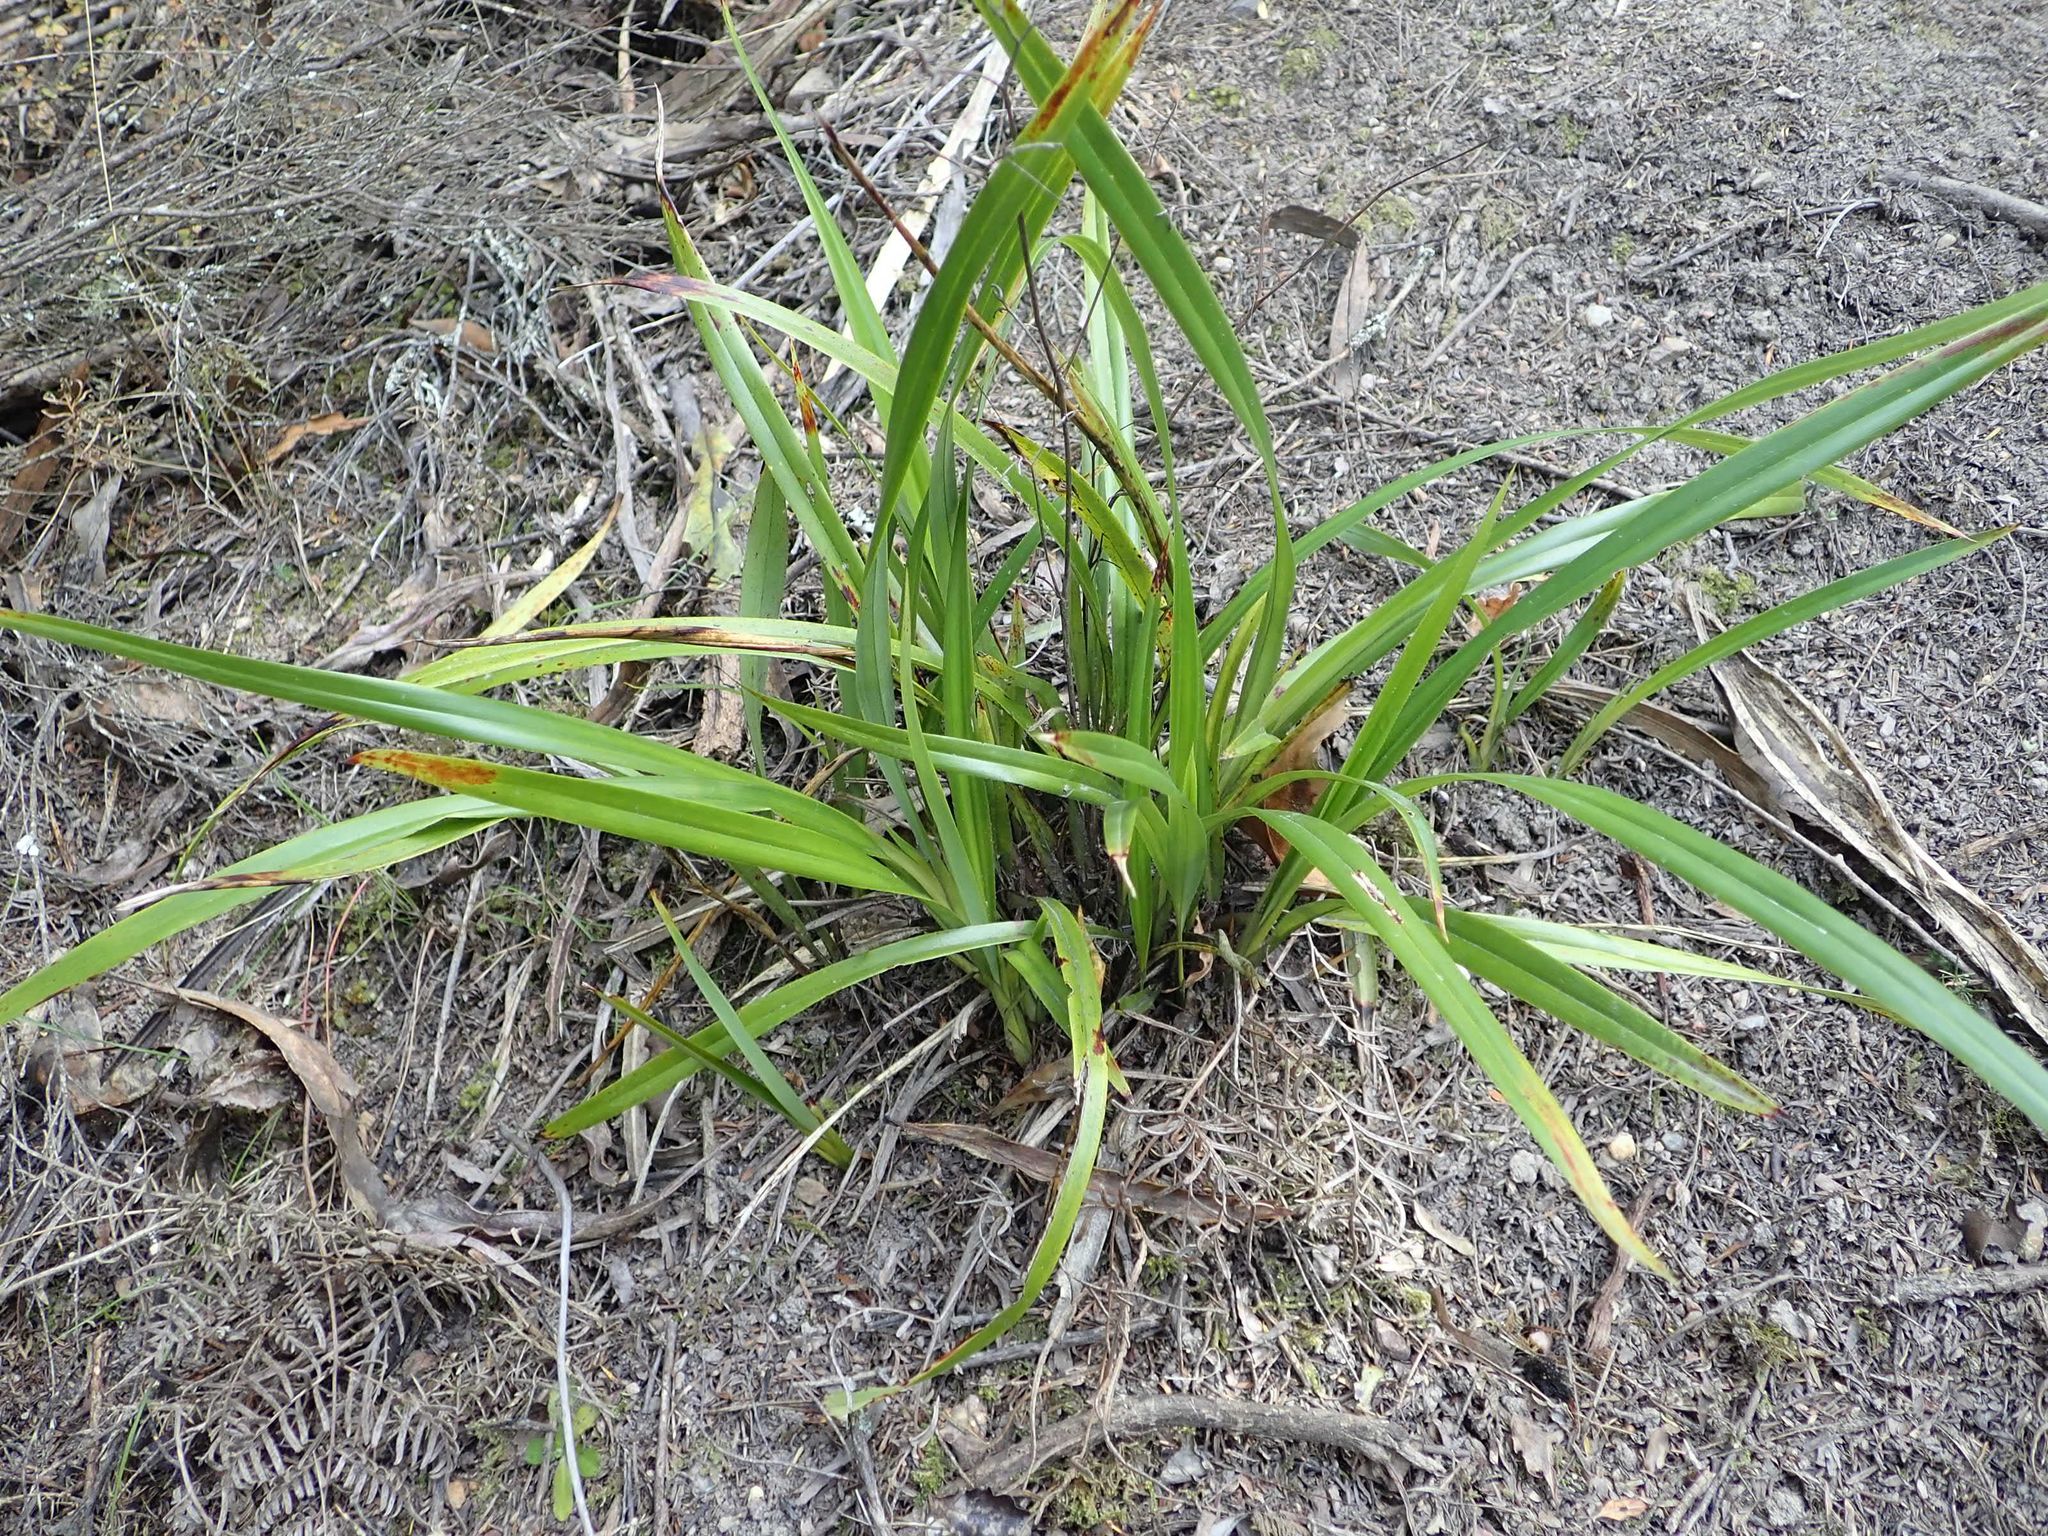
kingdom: Plantae
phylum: Tracheophyta
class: Liliopsida
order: Asparagales
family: Asphodelaceae
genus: Dianella
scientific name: Dianella nigra
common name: New zealand-blueberry
